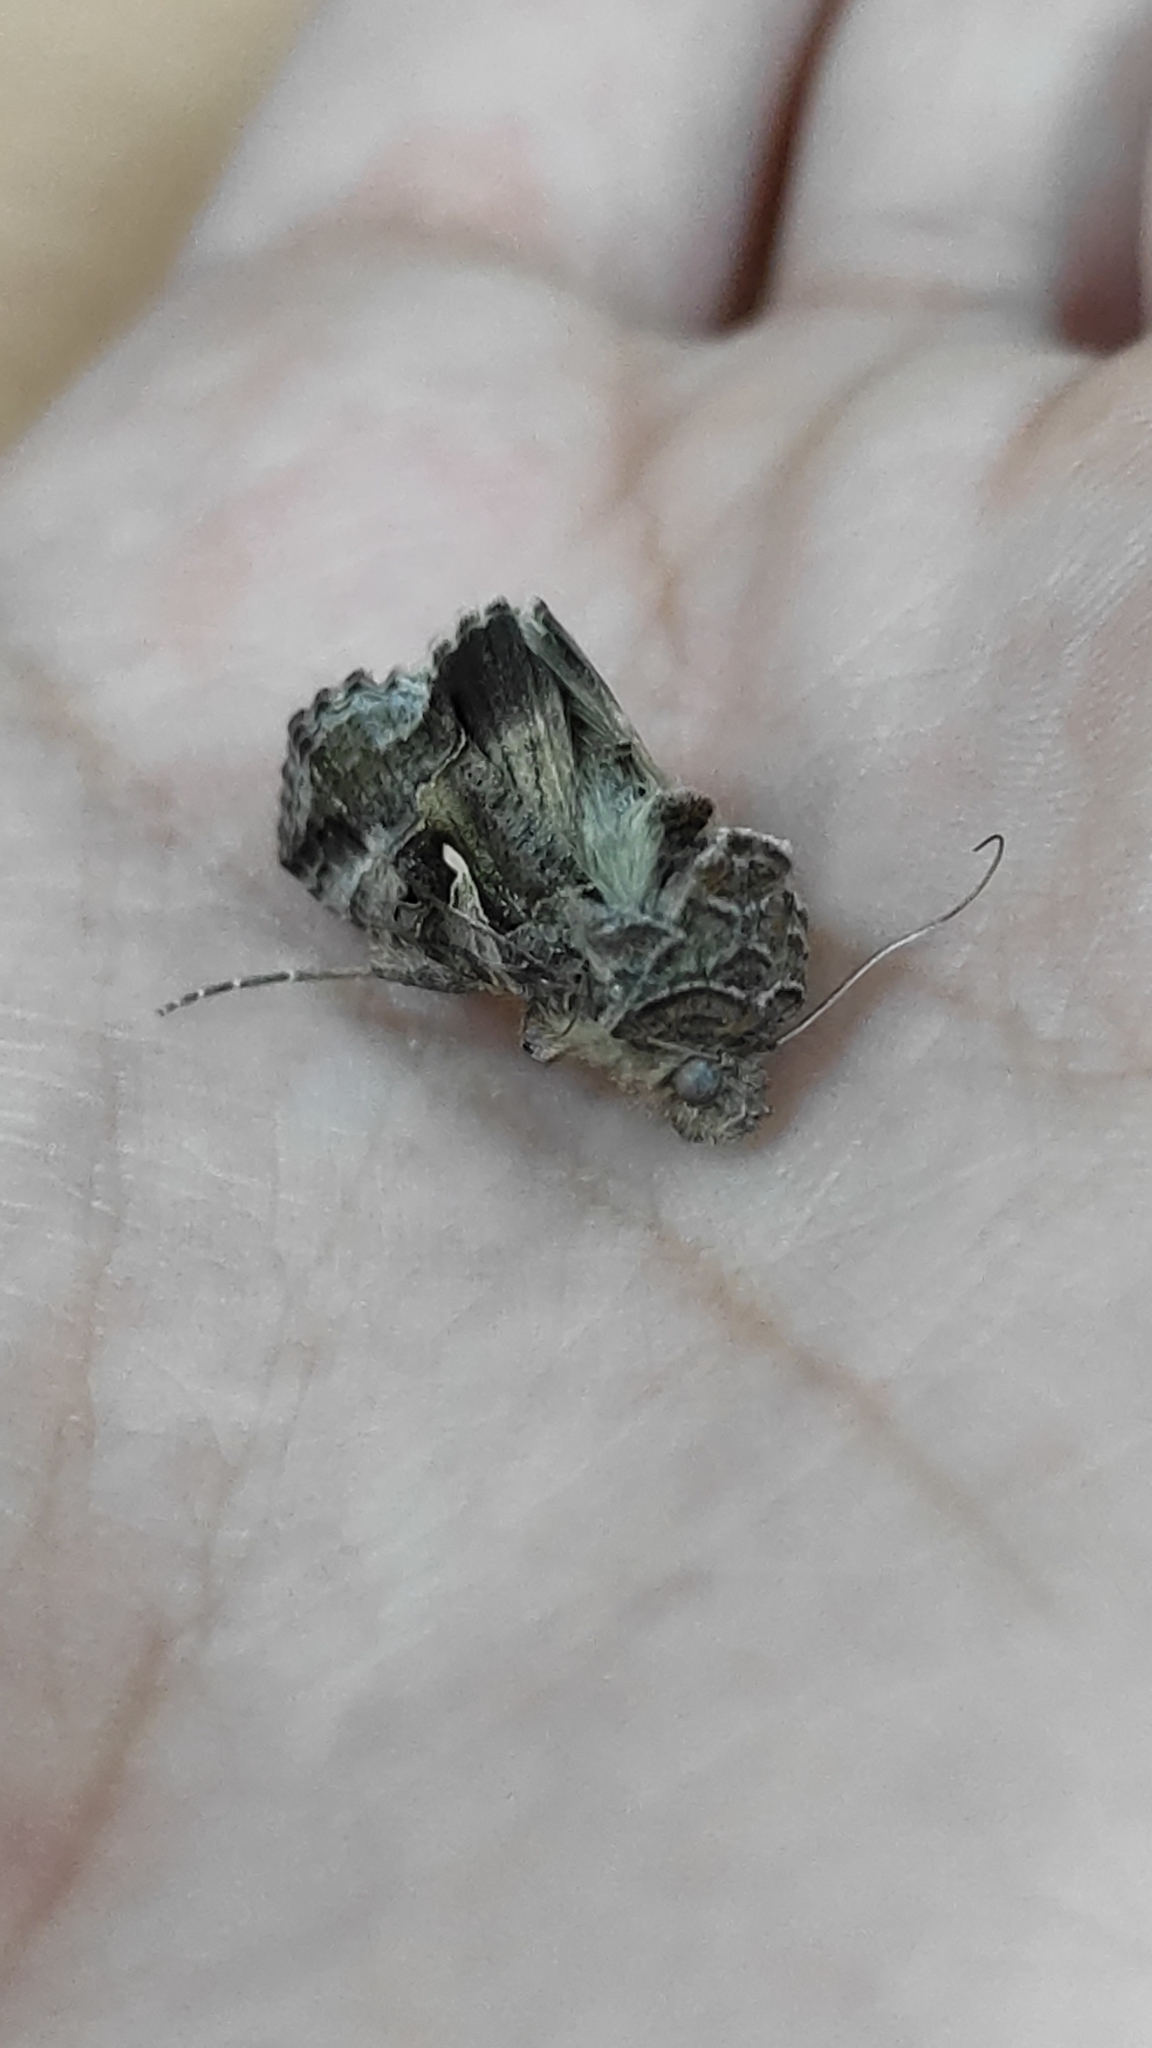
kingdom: Animalia
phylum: Arthropoda
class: Insecta
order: Lepidoptera
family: Noctuidae
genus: Autographa
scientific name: Autographa gamma
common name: Silver y
